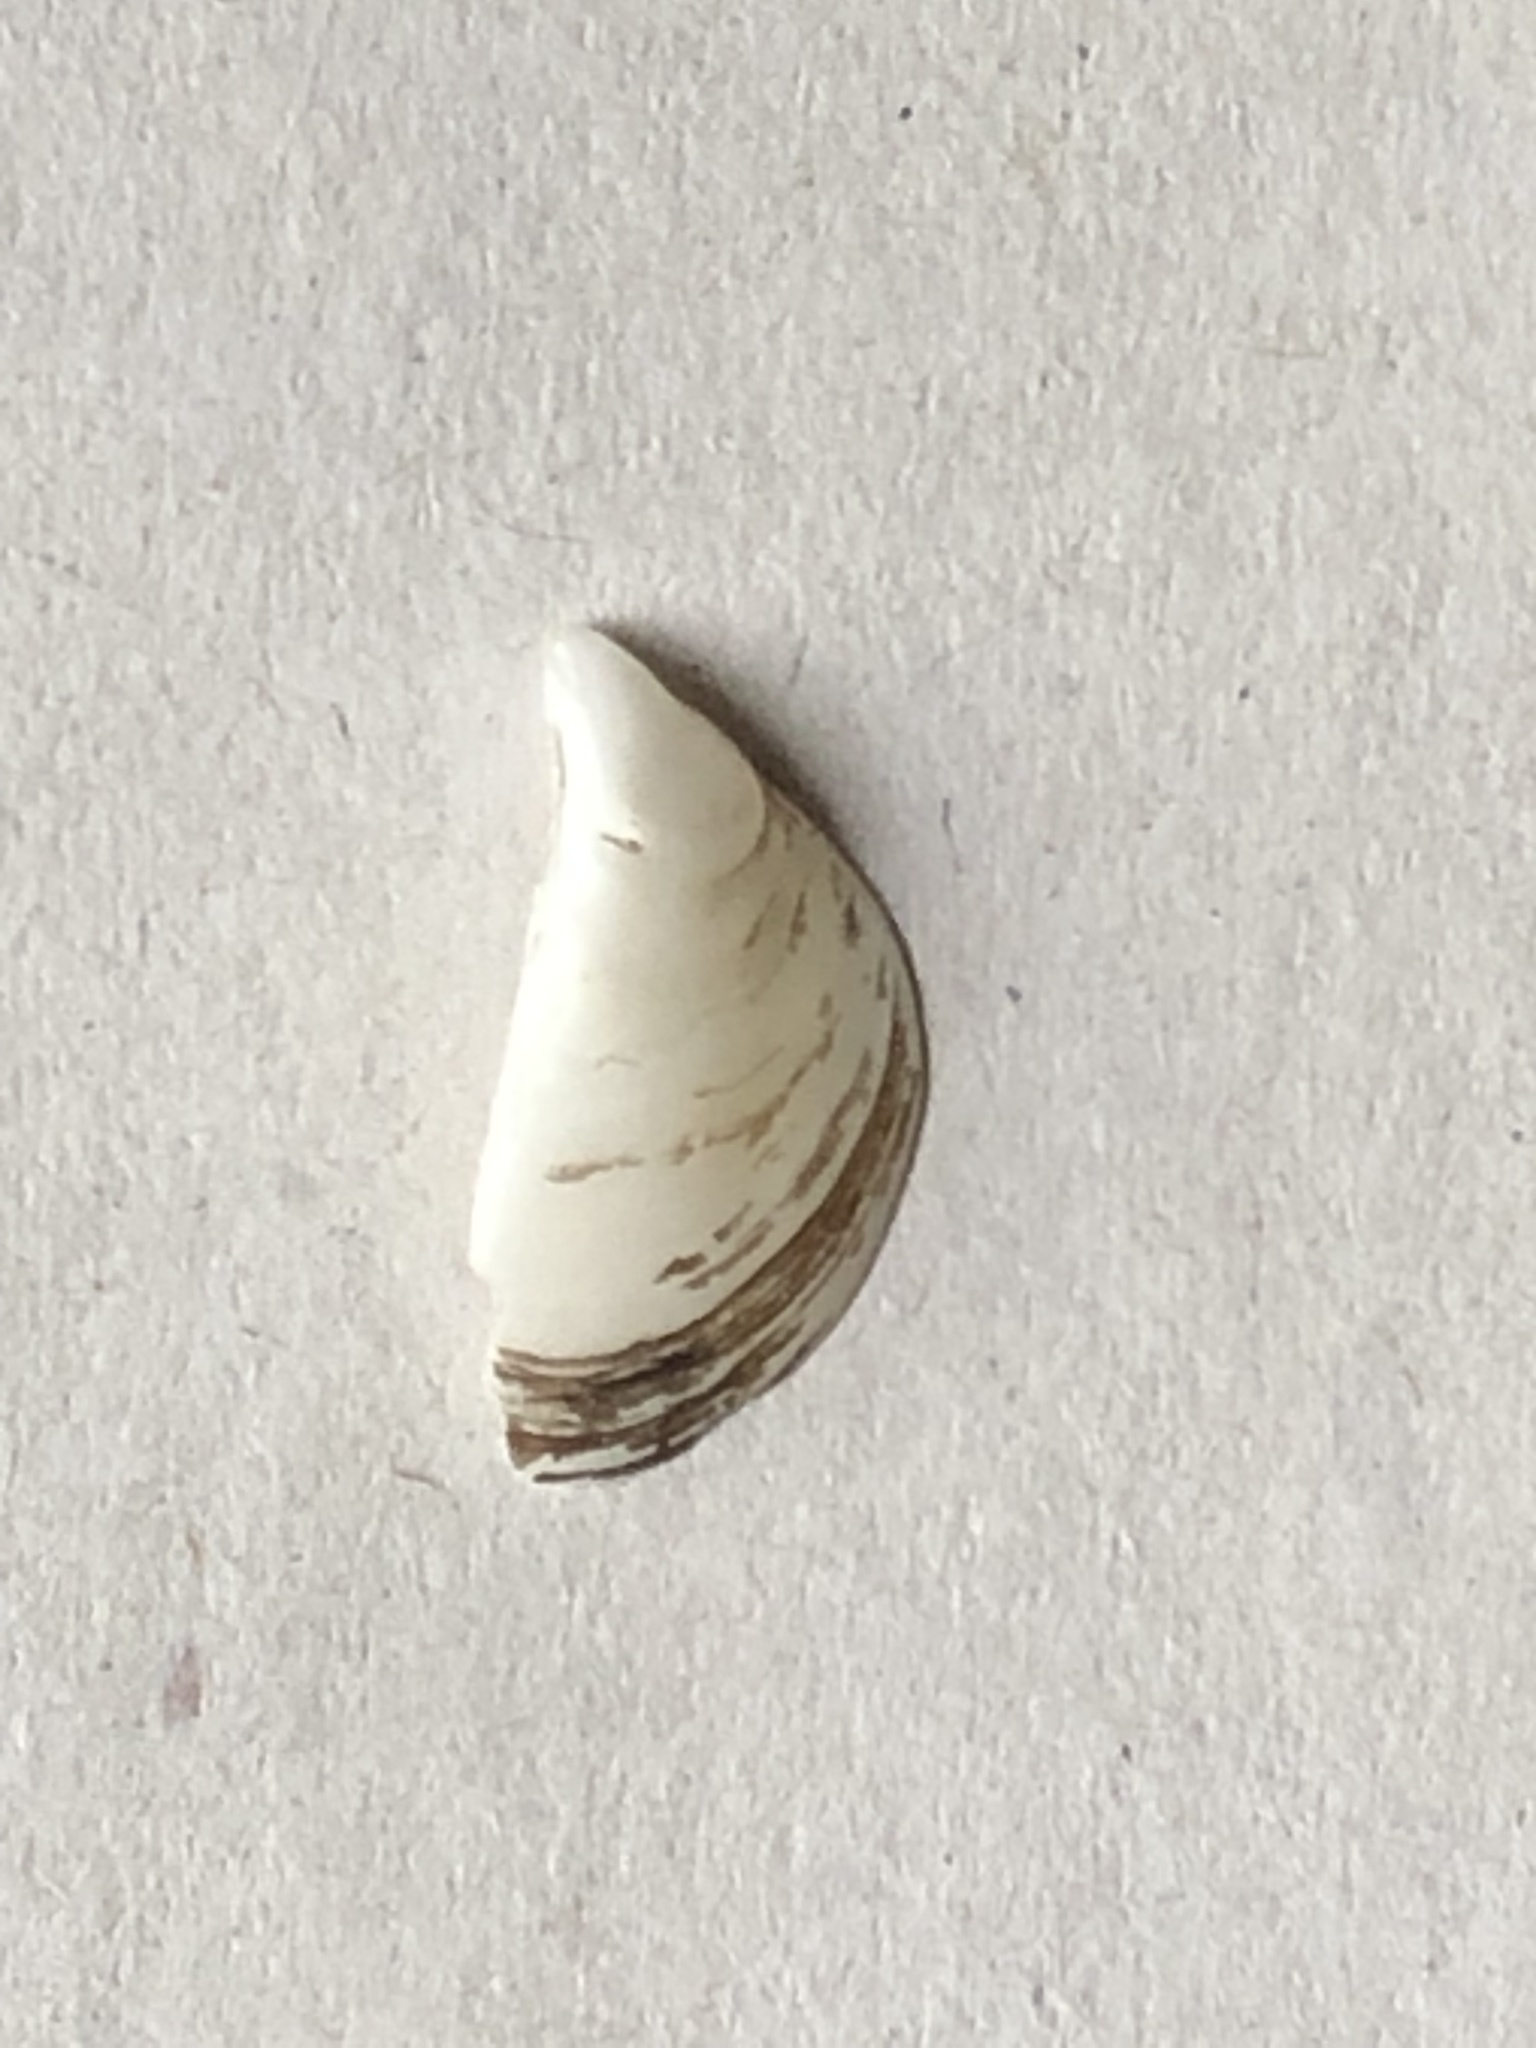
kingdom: Animalia
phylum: Mollusca
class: Bivalvia
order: Myida
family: Dreissenidae
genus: Dreissena
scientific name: Dreissena polymorpha
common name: Zebra mussel
